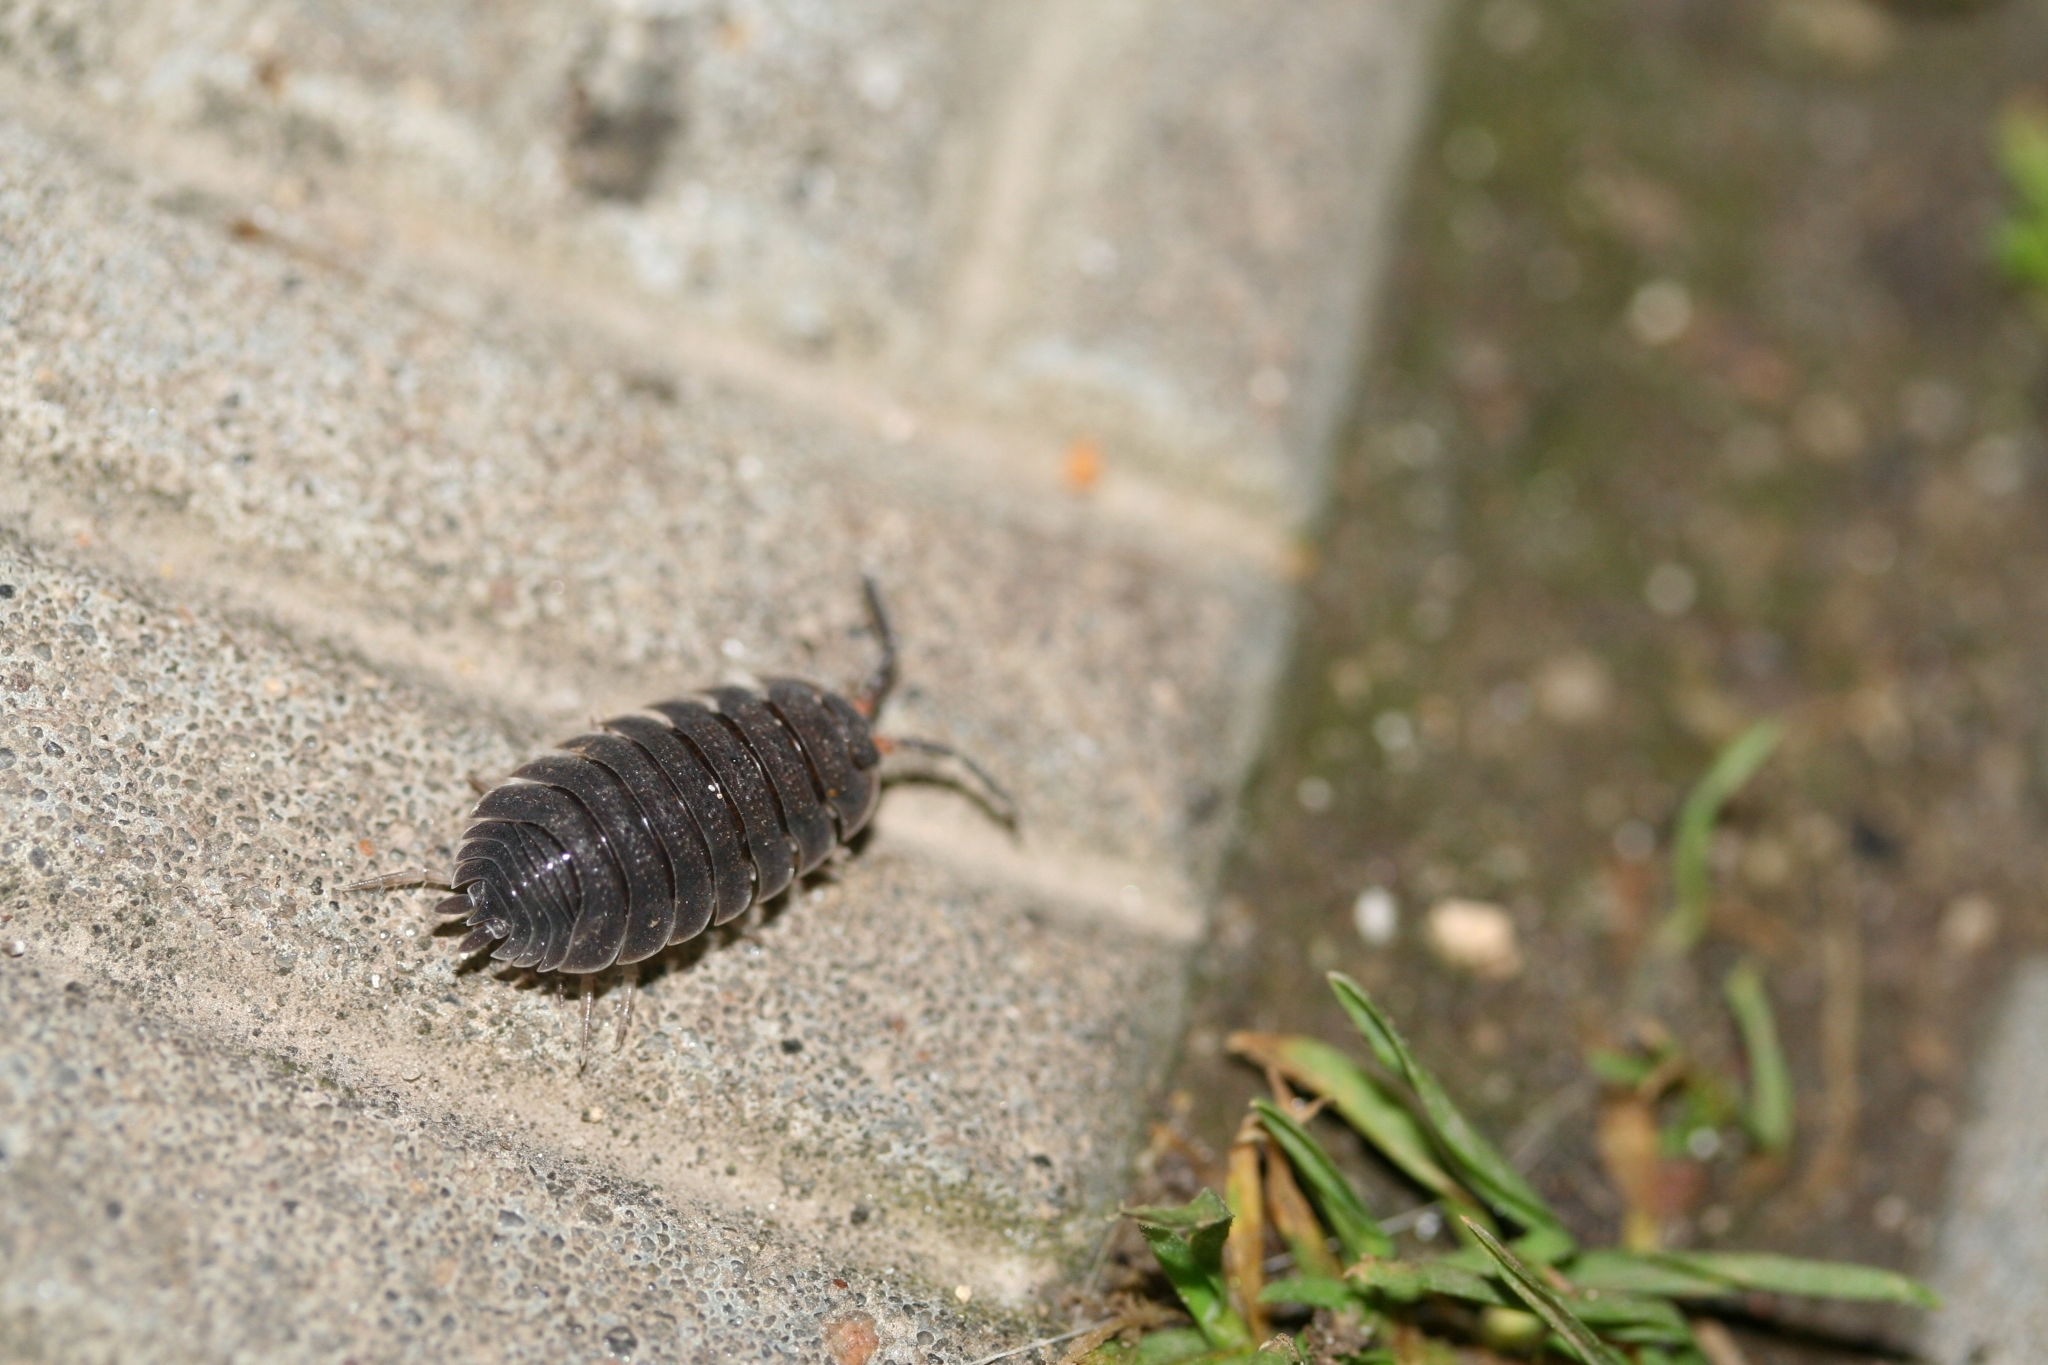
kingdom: Animalia
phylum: Arthropoda
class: Malacostraca
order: Isopoda
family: Porcellionidae
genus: Porcellio
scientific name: Porcellio scaber
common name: Common rough woodlouse
